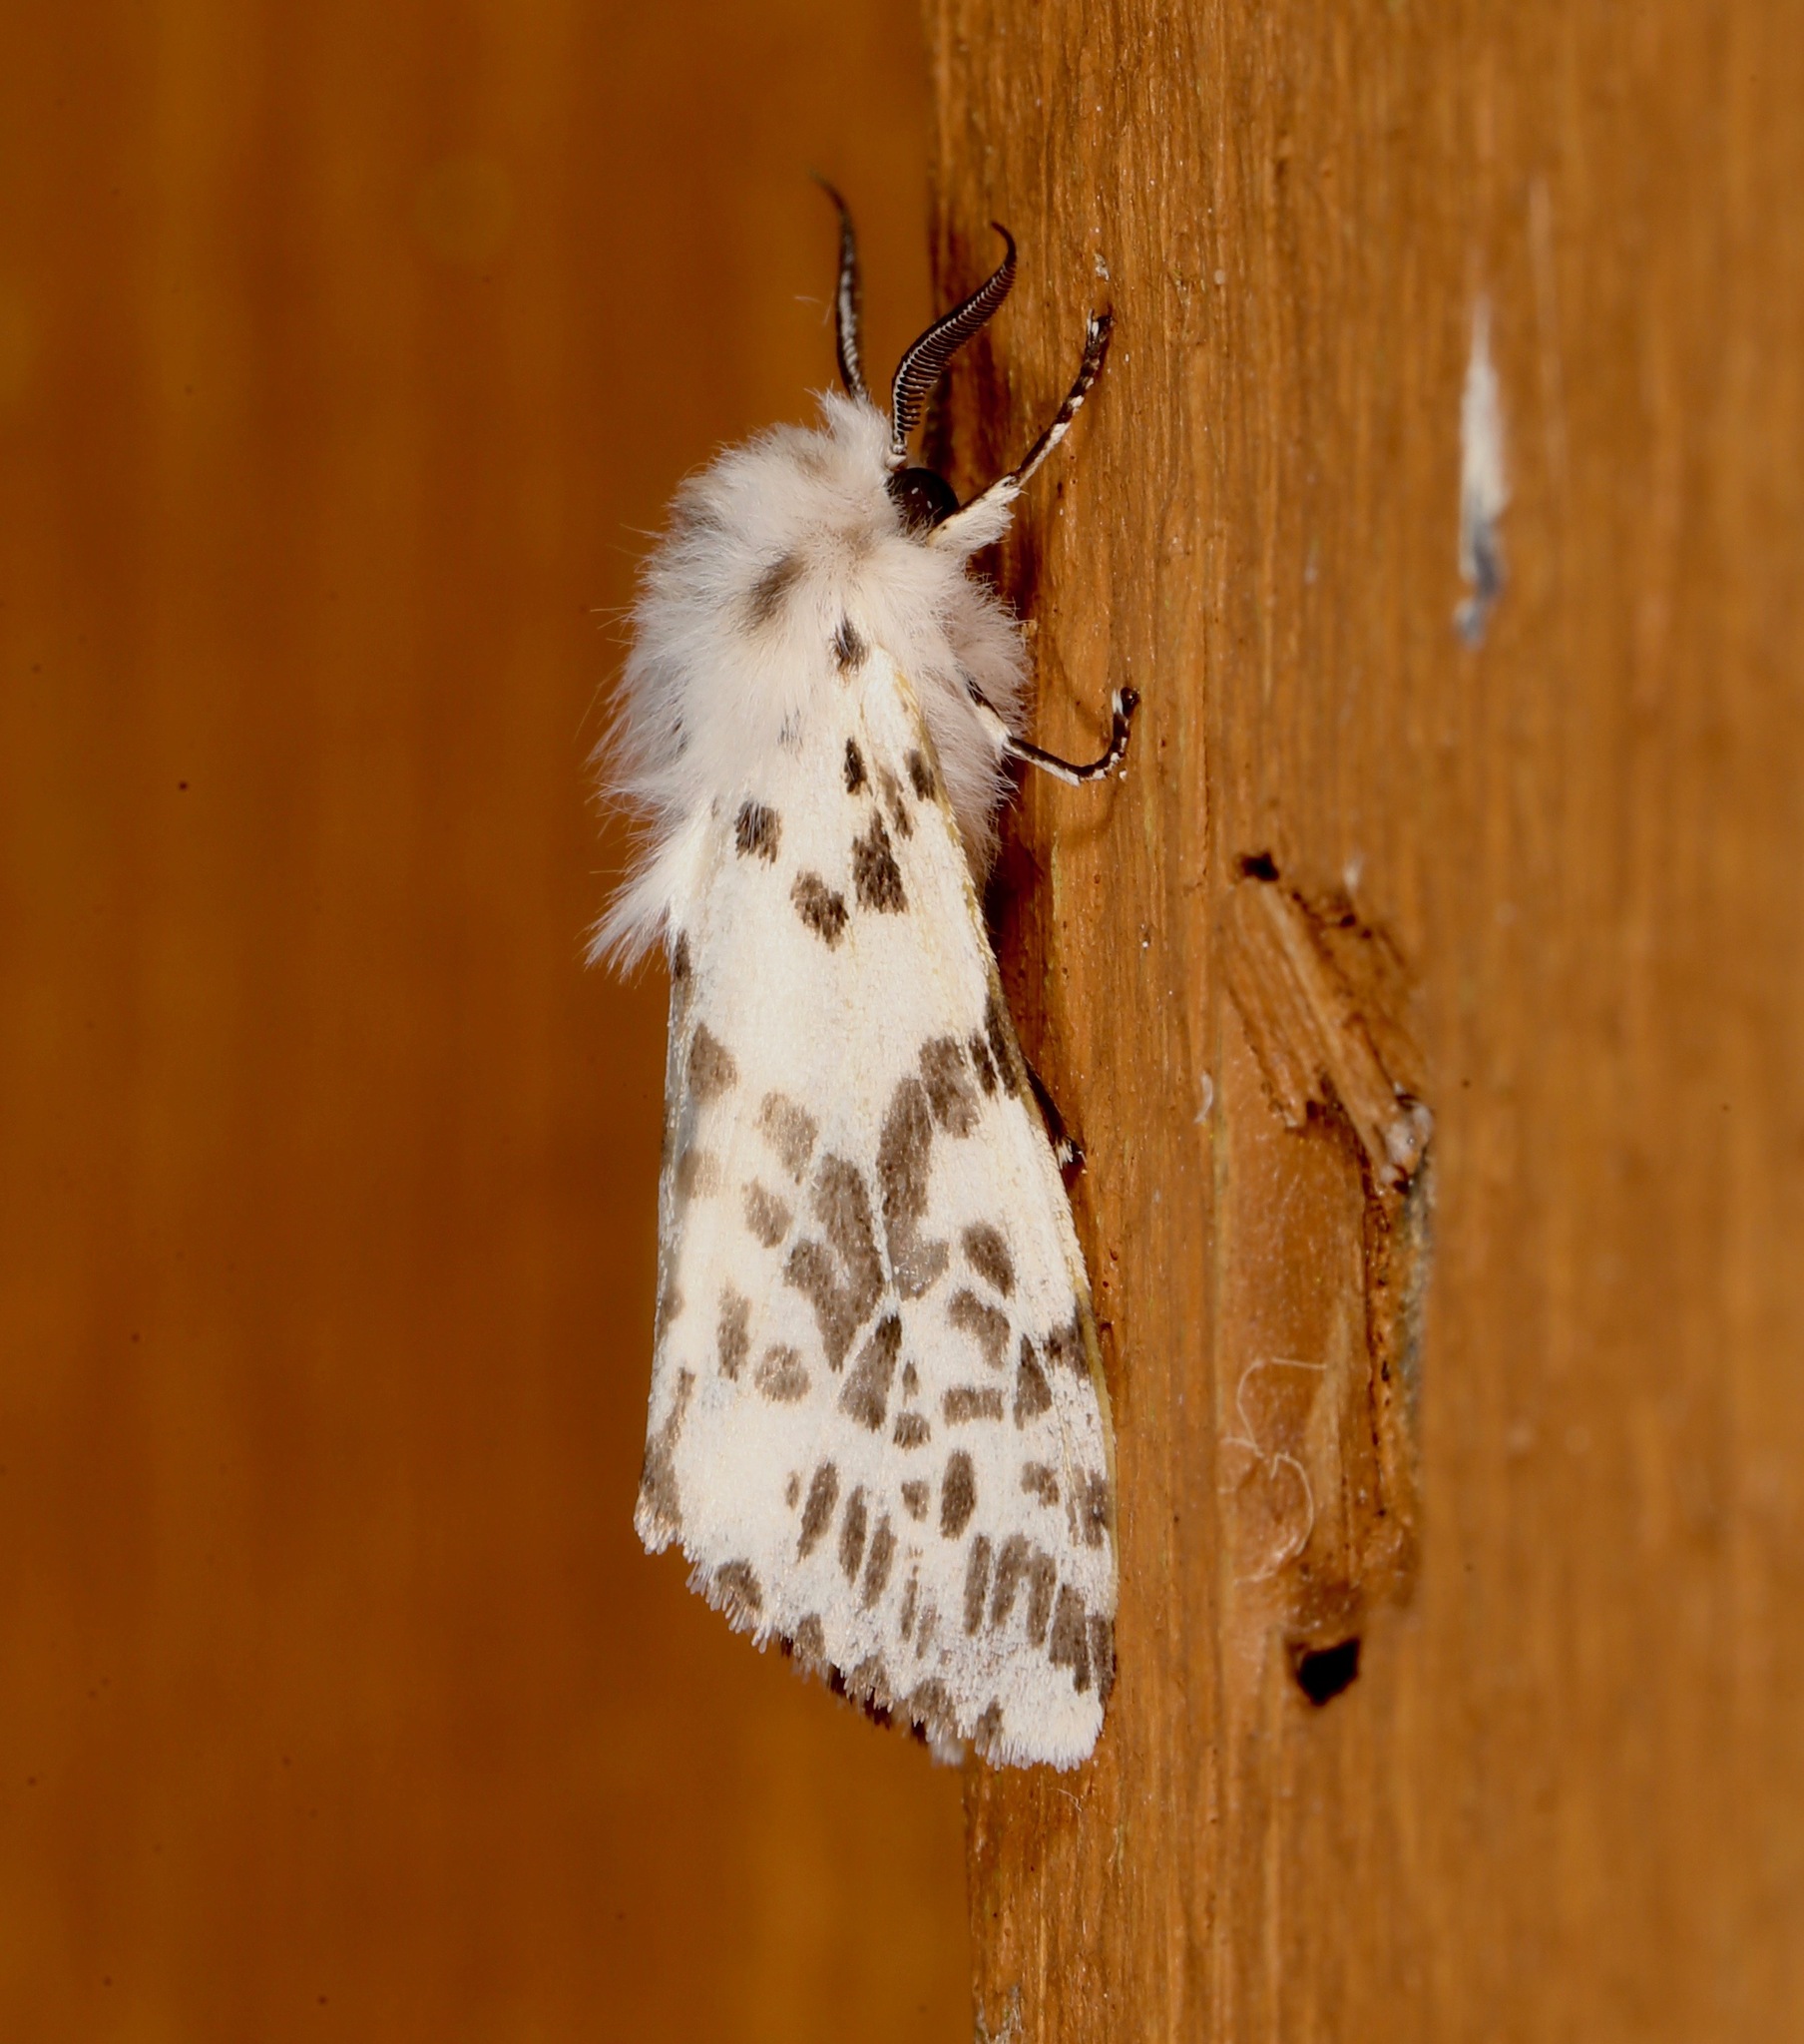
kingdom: Animalia
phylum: Arthropoda
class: Insecta
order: Lepidoptera
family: Erebidae
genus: Hyphantria
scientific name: Hyphantria cunea
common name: American white moth
